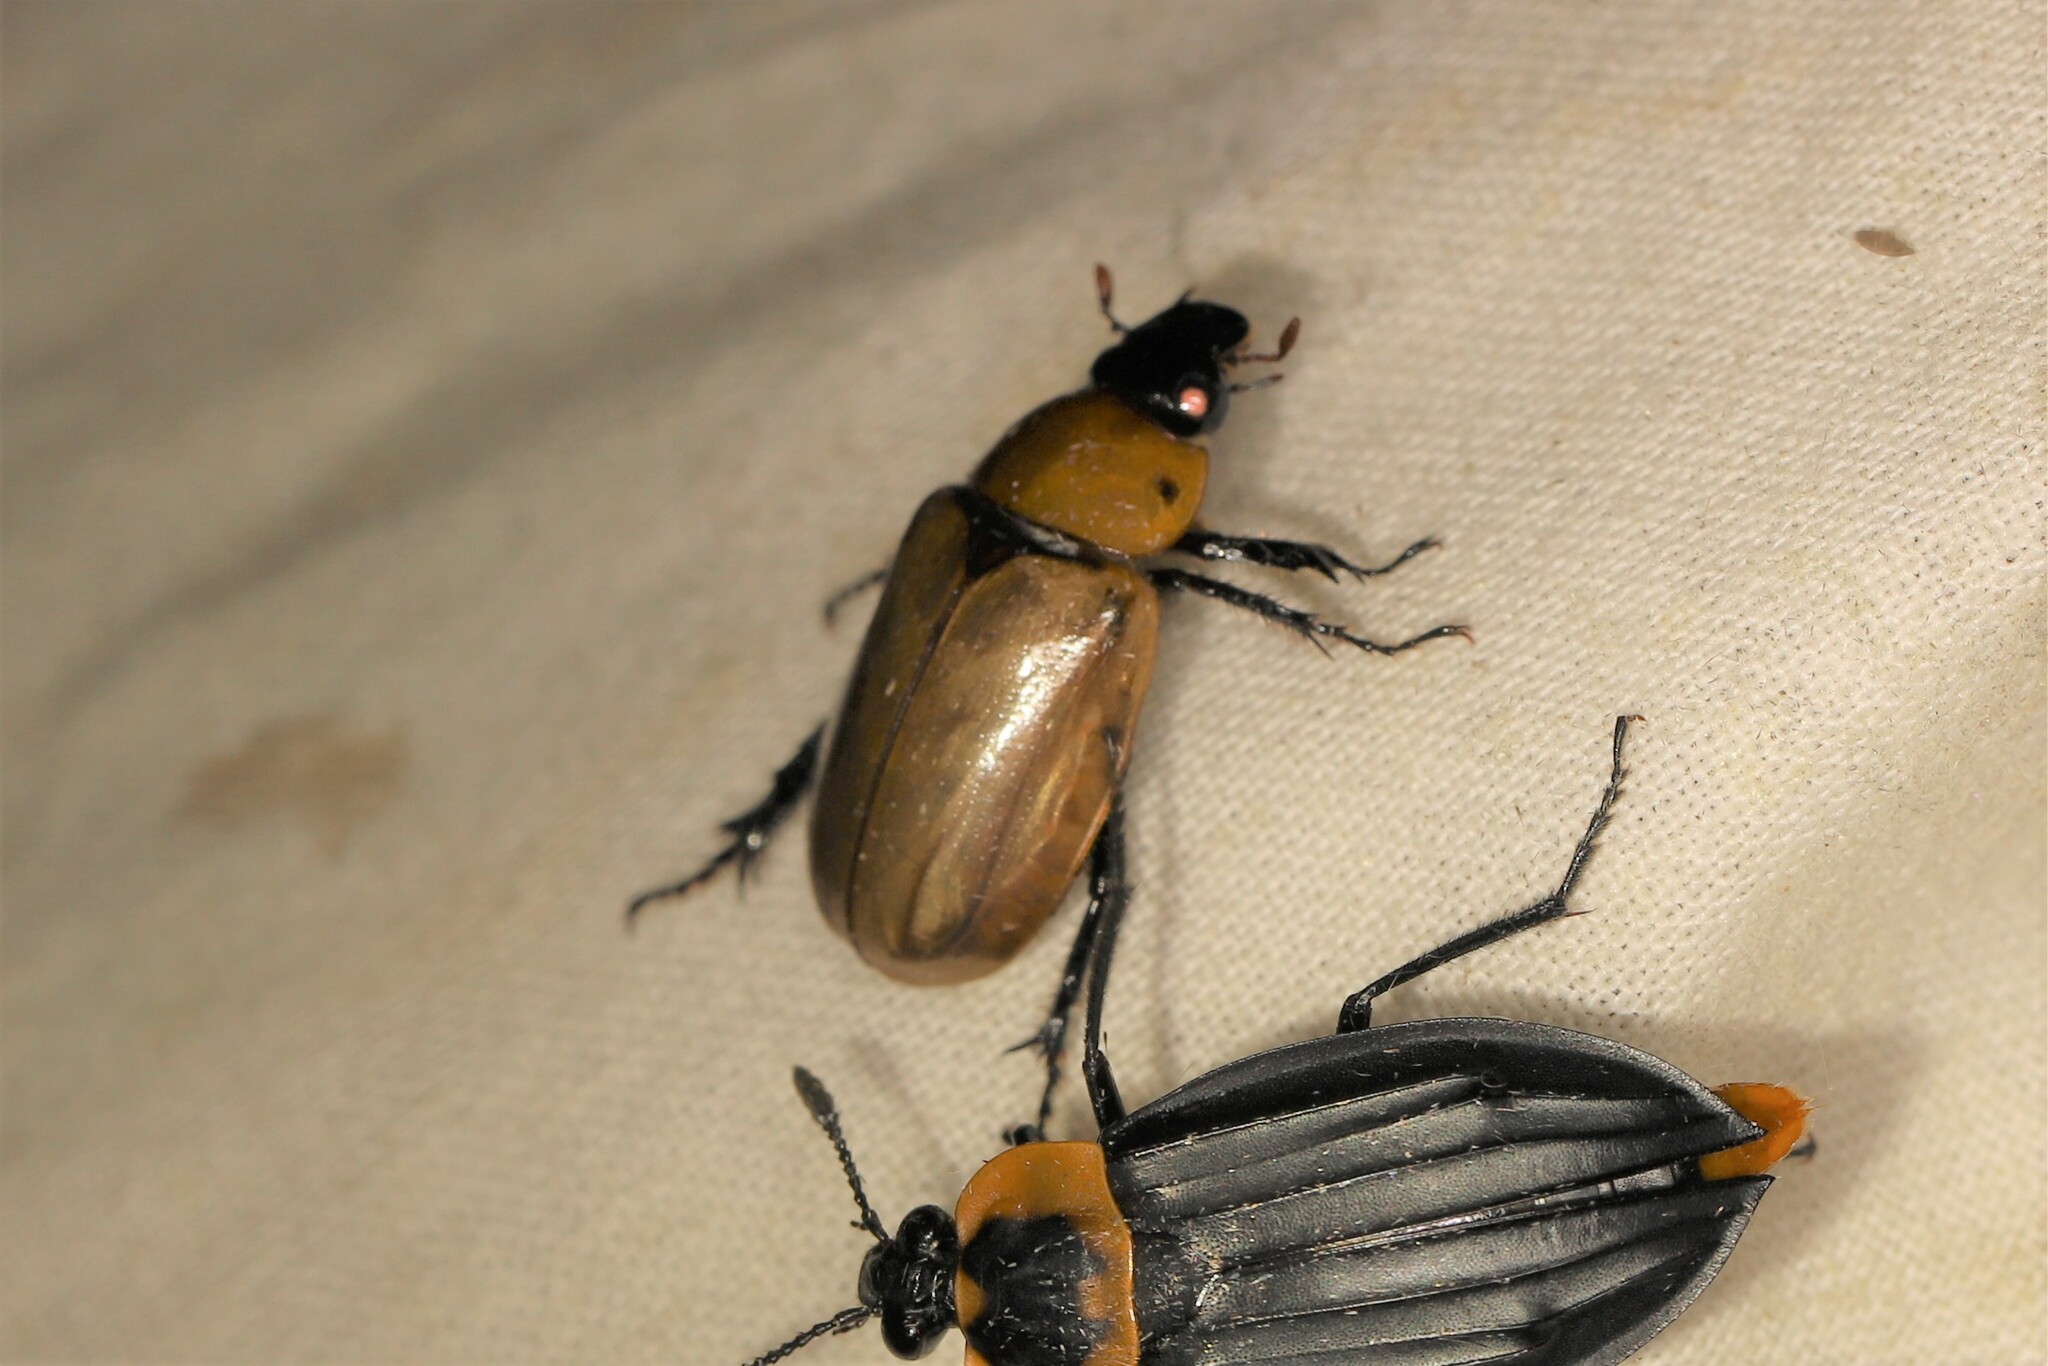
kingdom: Animalia
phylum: Arthropoda
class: Insecta
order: Coleoptera
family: Scarabaeidae
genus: Cyclocephala
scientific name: Cyclocephala lunulata
